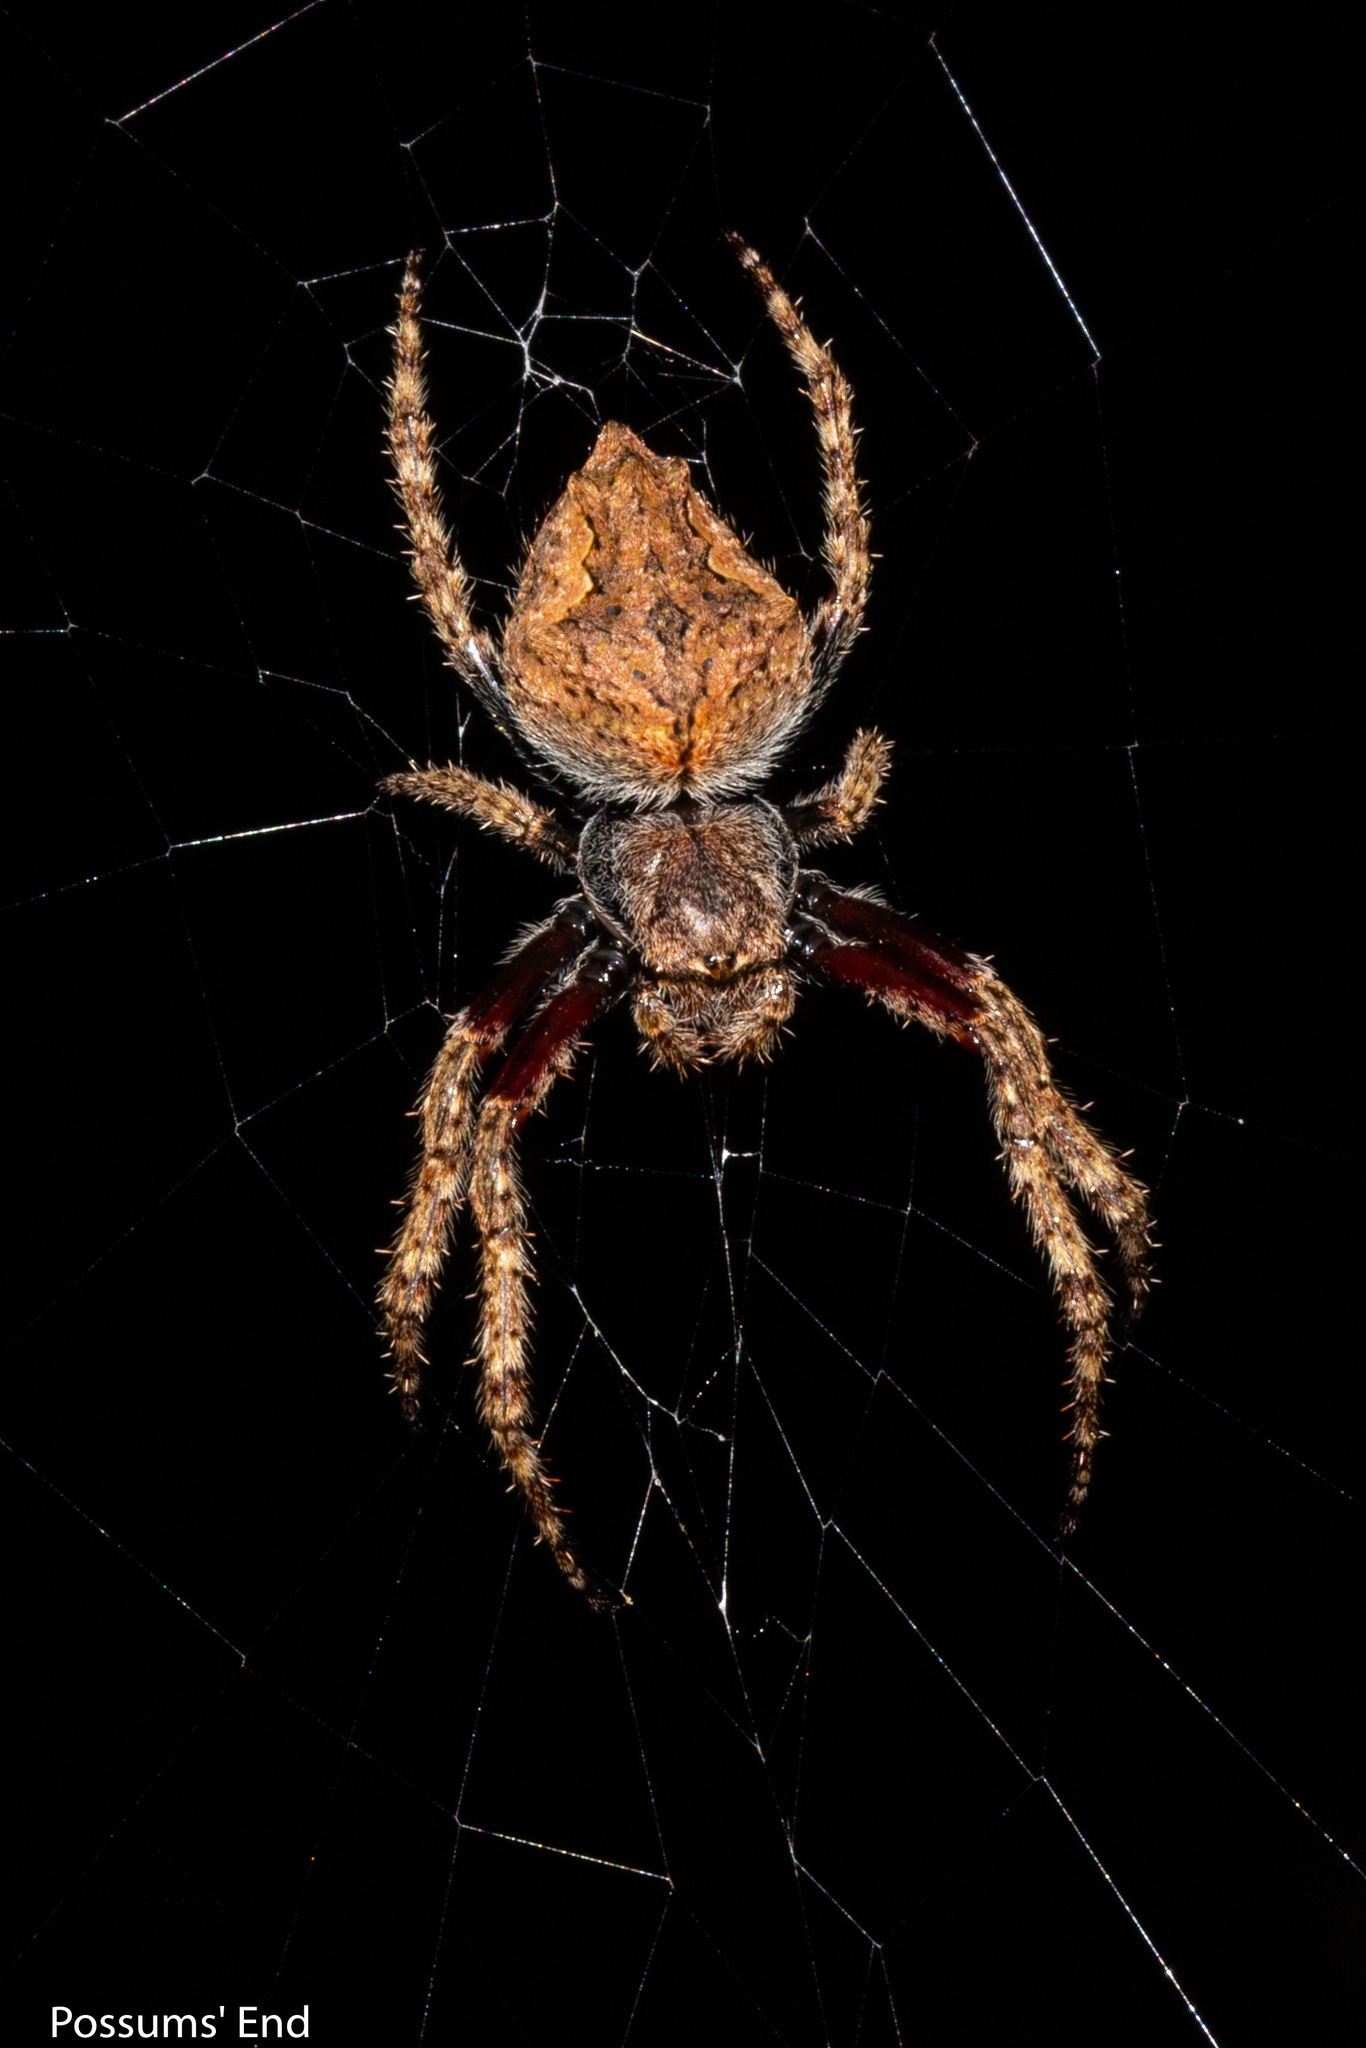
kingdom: Animalia
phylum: Arthropoda
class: Arachnida
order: Araneae
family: Araneidae
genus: Eriophora
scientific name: Eriophora pustulosa
